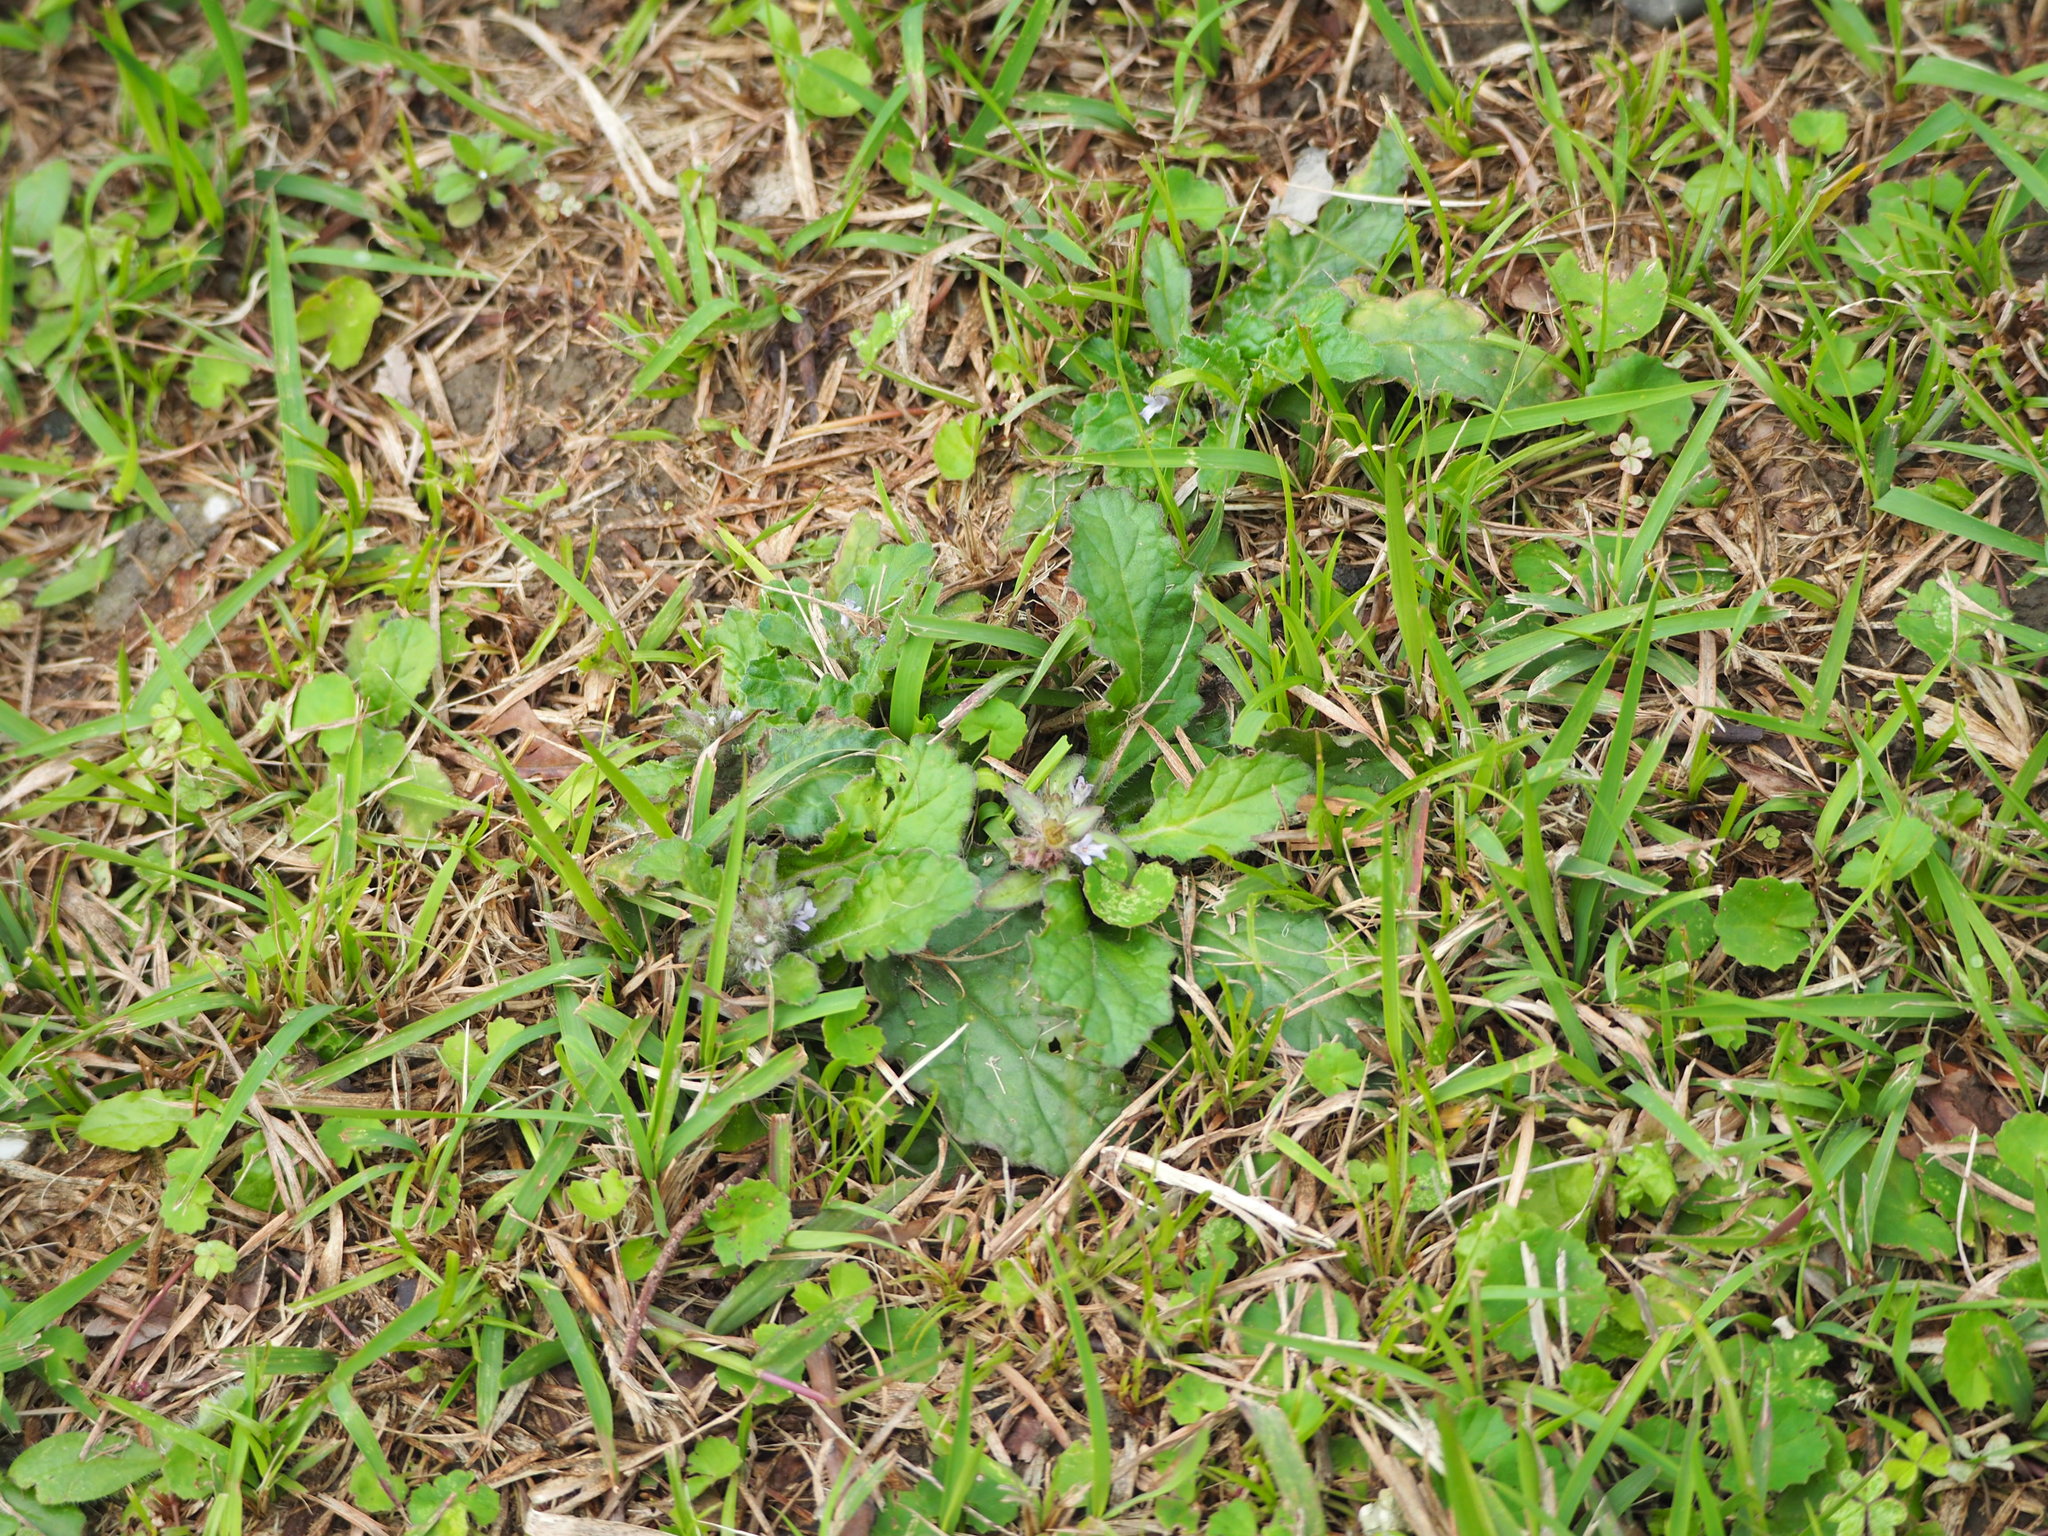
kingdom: Plantae
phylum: Tracheophyta
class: Magnoliopsida
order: Lamiales
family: Lamiaceae
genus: Ajuga
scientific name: Ajuga taiwanensis
